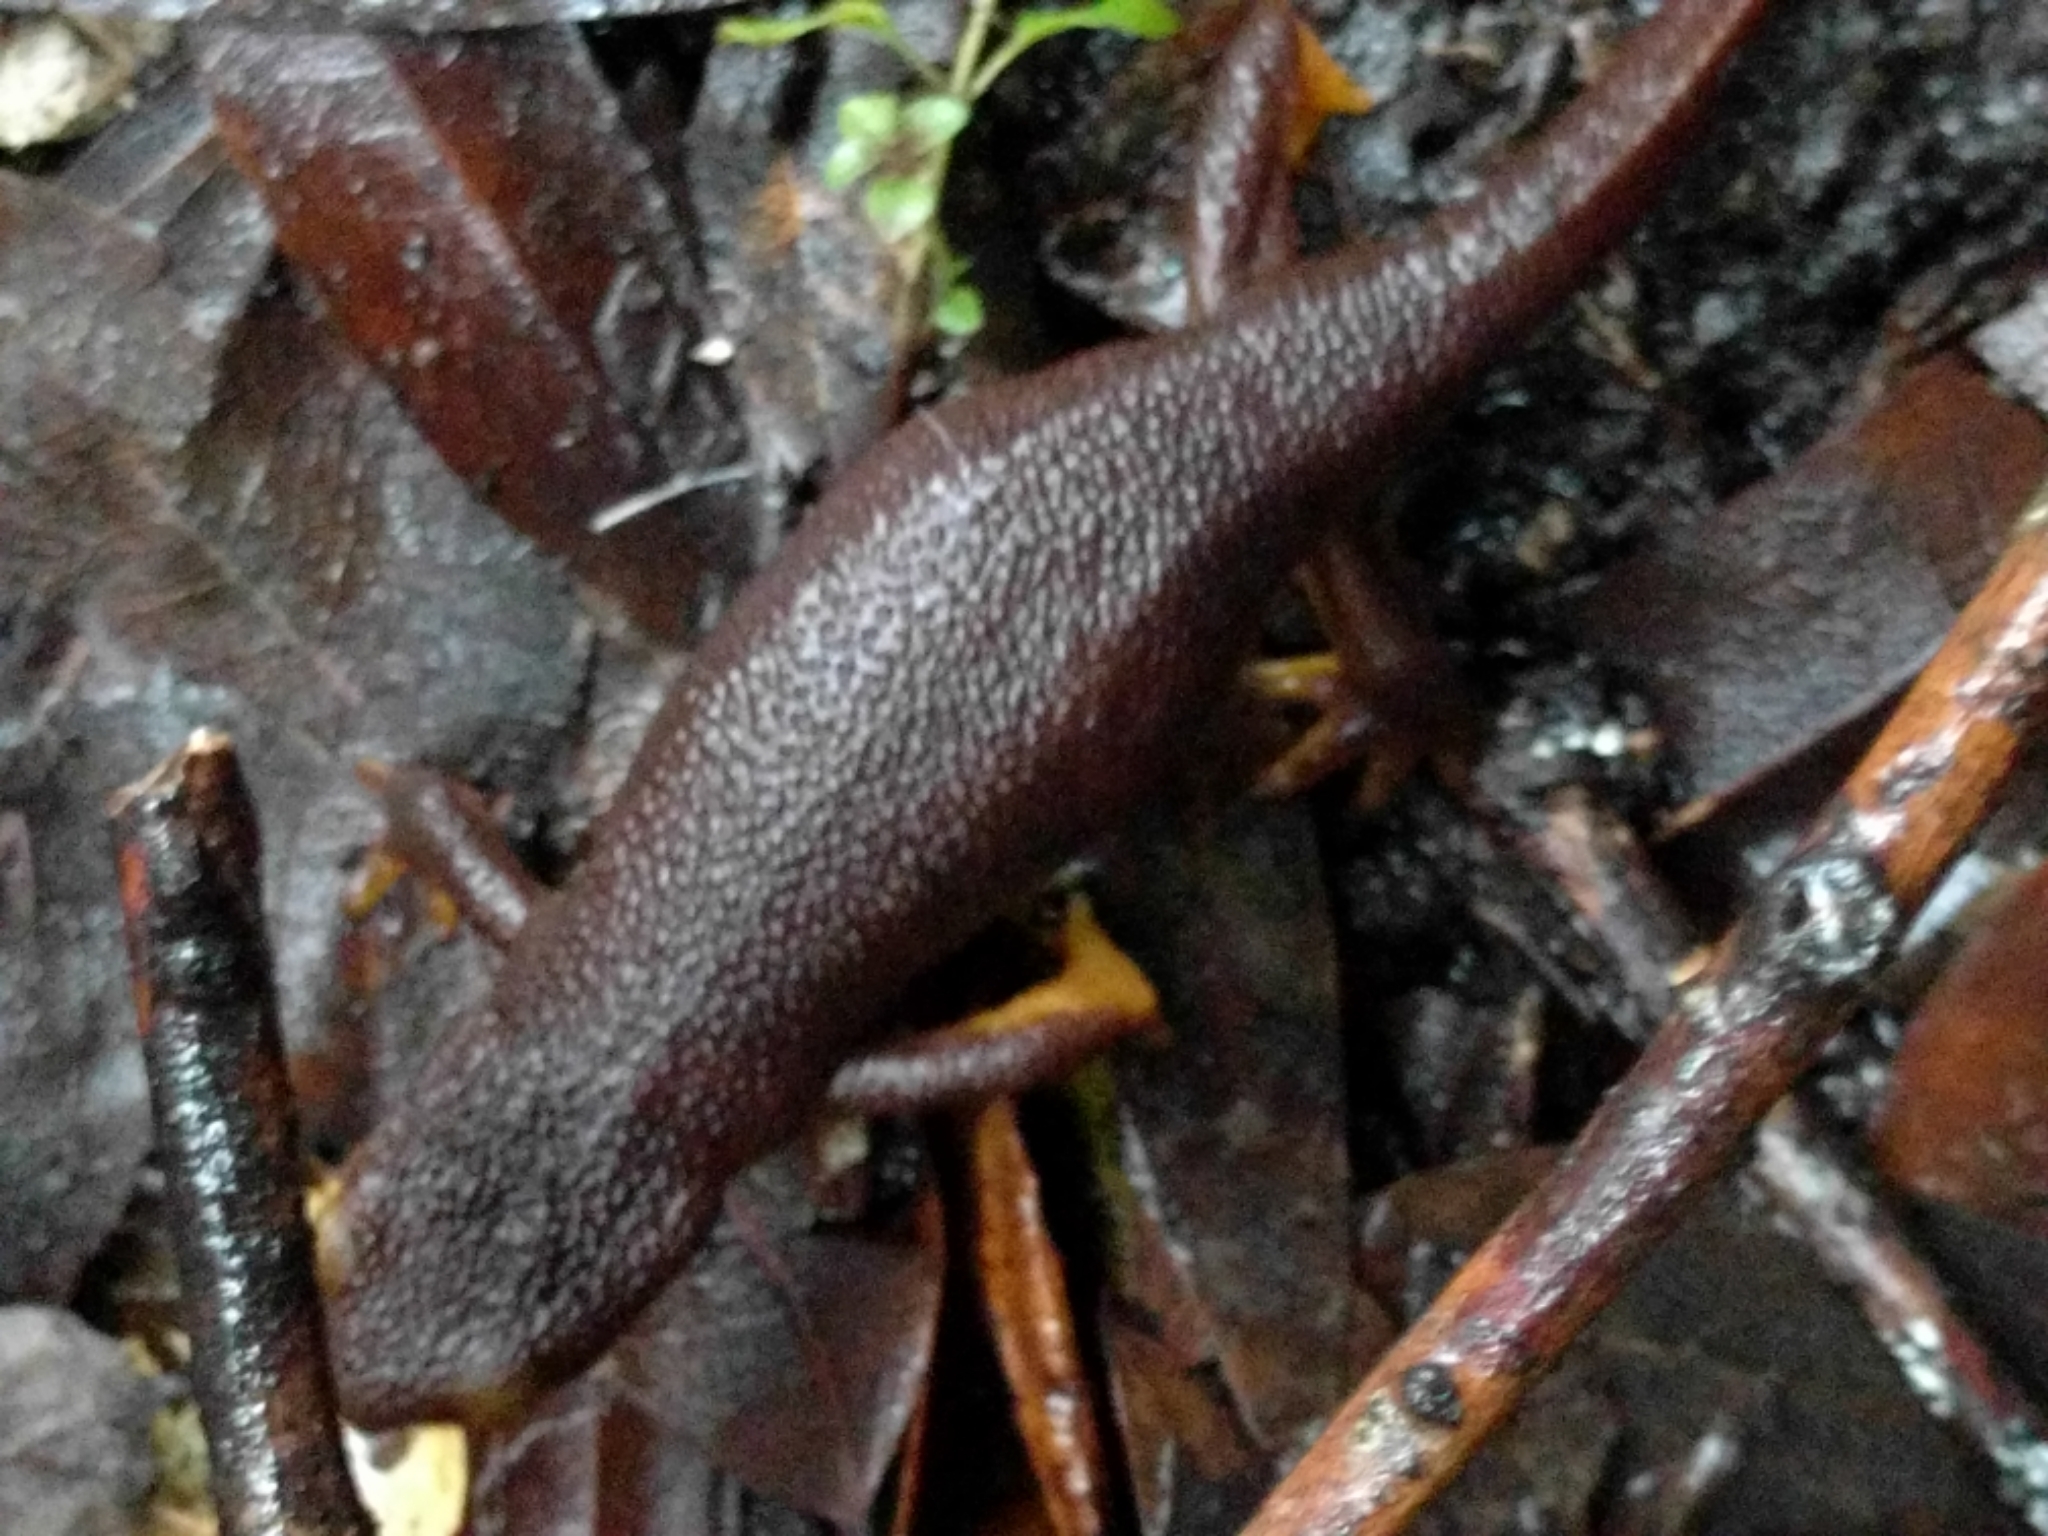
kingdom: Animalia
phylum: Chordata
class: Amphibia
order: Caudata
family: Salamandridae
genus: Taricha
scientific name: Taricha torosa
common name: California newt
